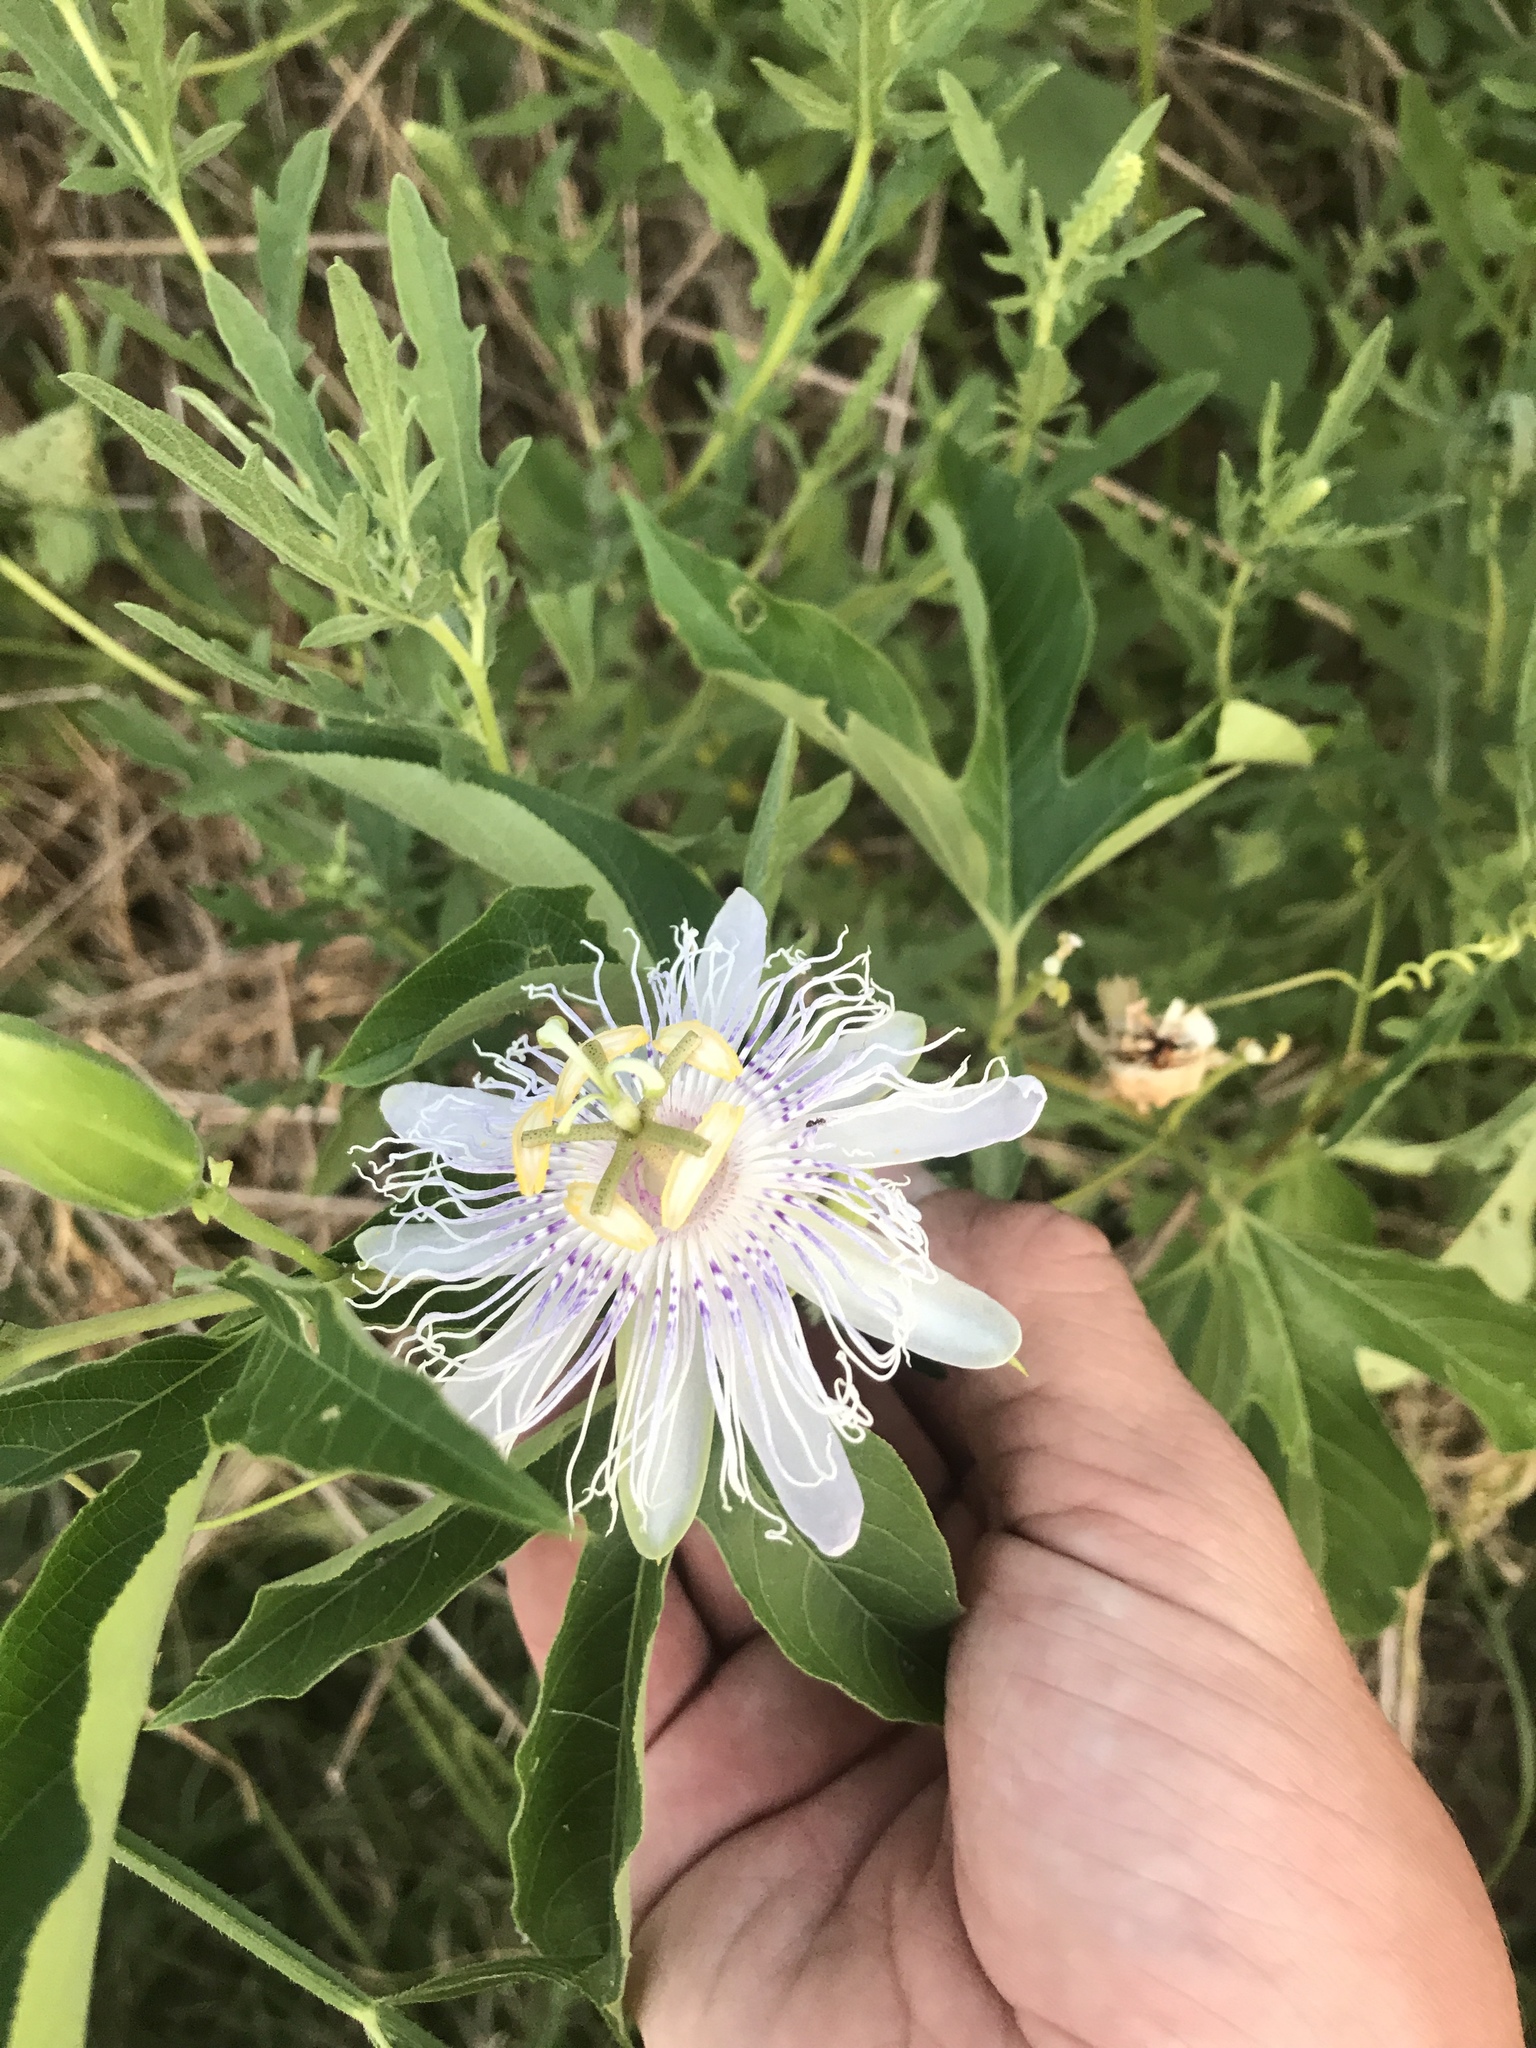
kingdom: Plantae
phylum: Tracheophyta
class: Magnoliopsida
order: Malpighiales
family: Passifloraceae
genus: Passiflora
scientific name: Passiflora incarnata
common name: Apricot-vine
